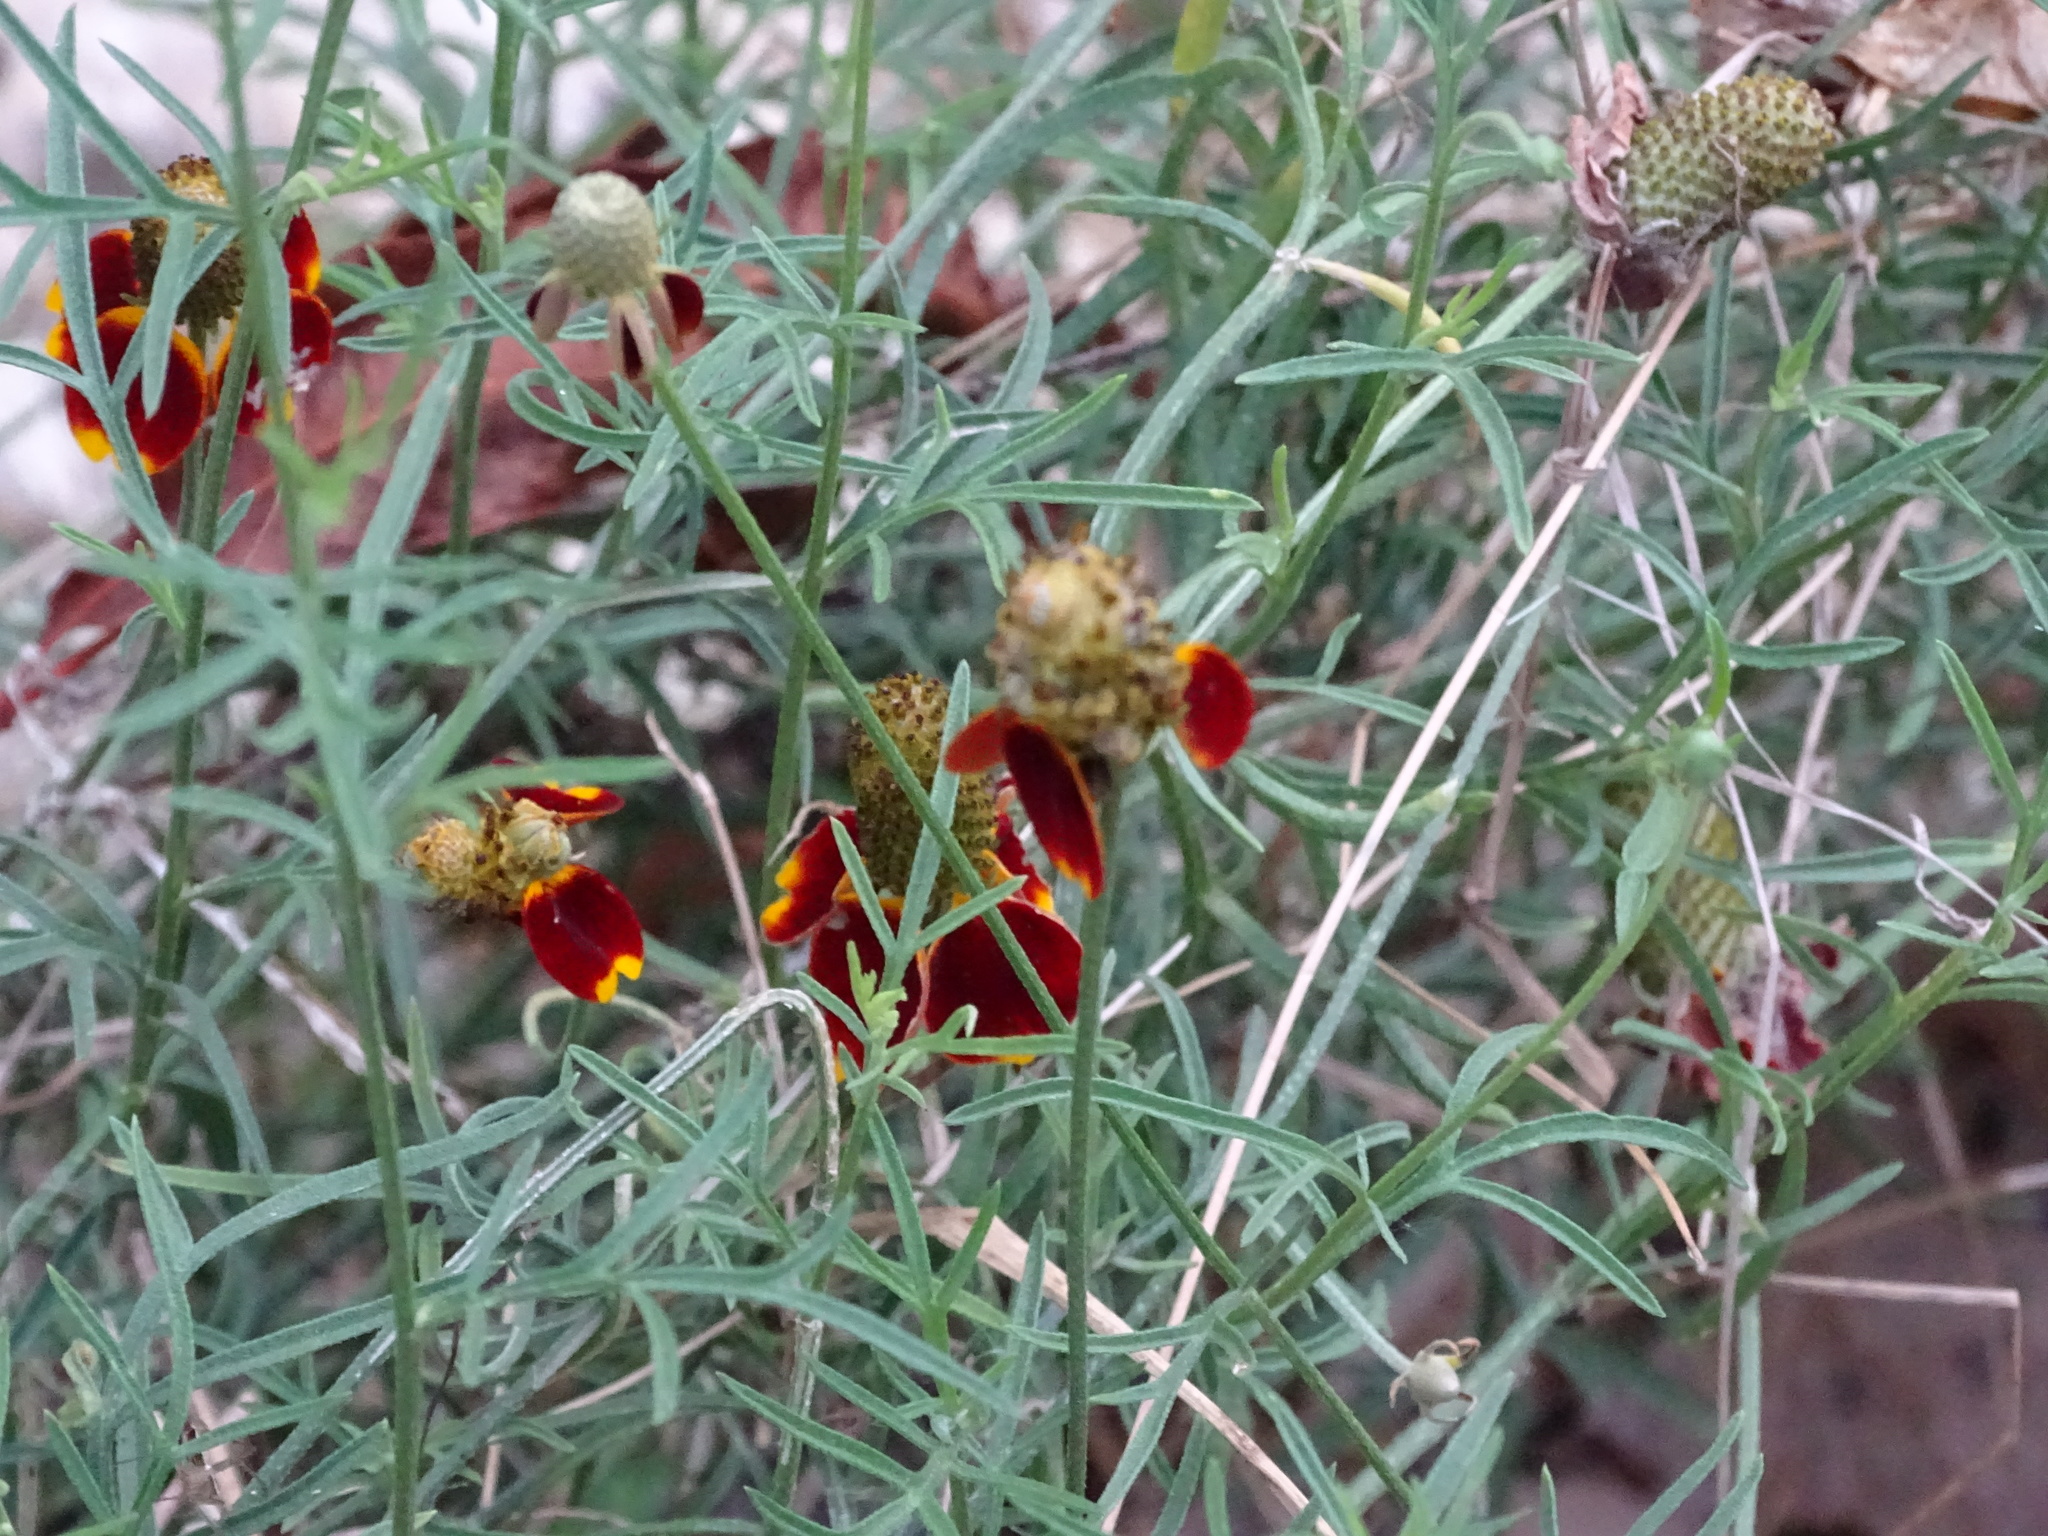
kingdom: Plantae
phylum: Tracheophyta
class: Magnoliopsida
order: Asterales
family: Asteraceae
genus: Ratibida
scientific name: Ratibida columnifera
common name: Prairie coneflower
